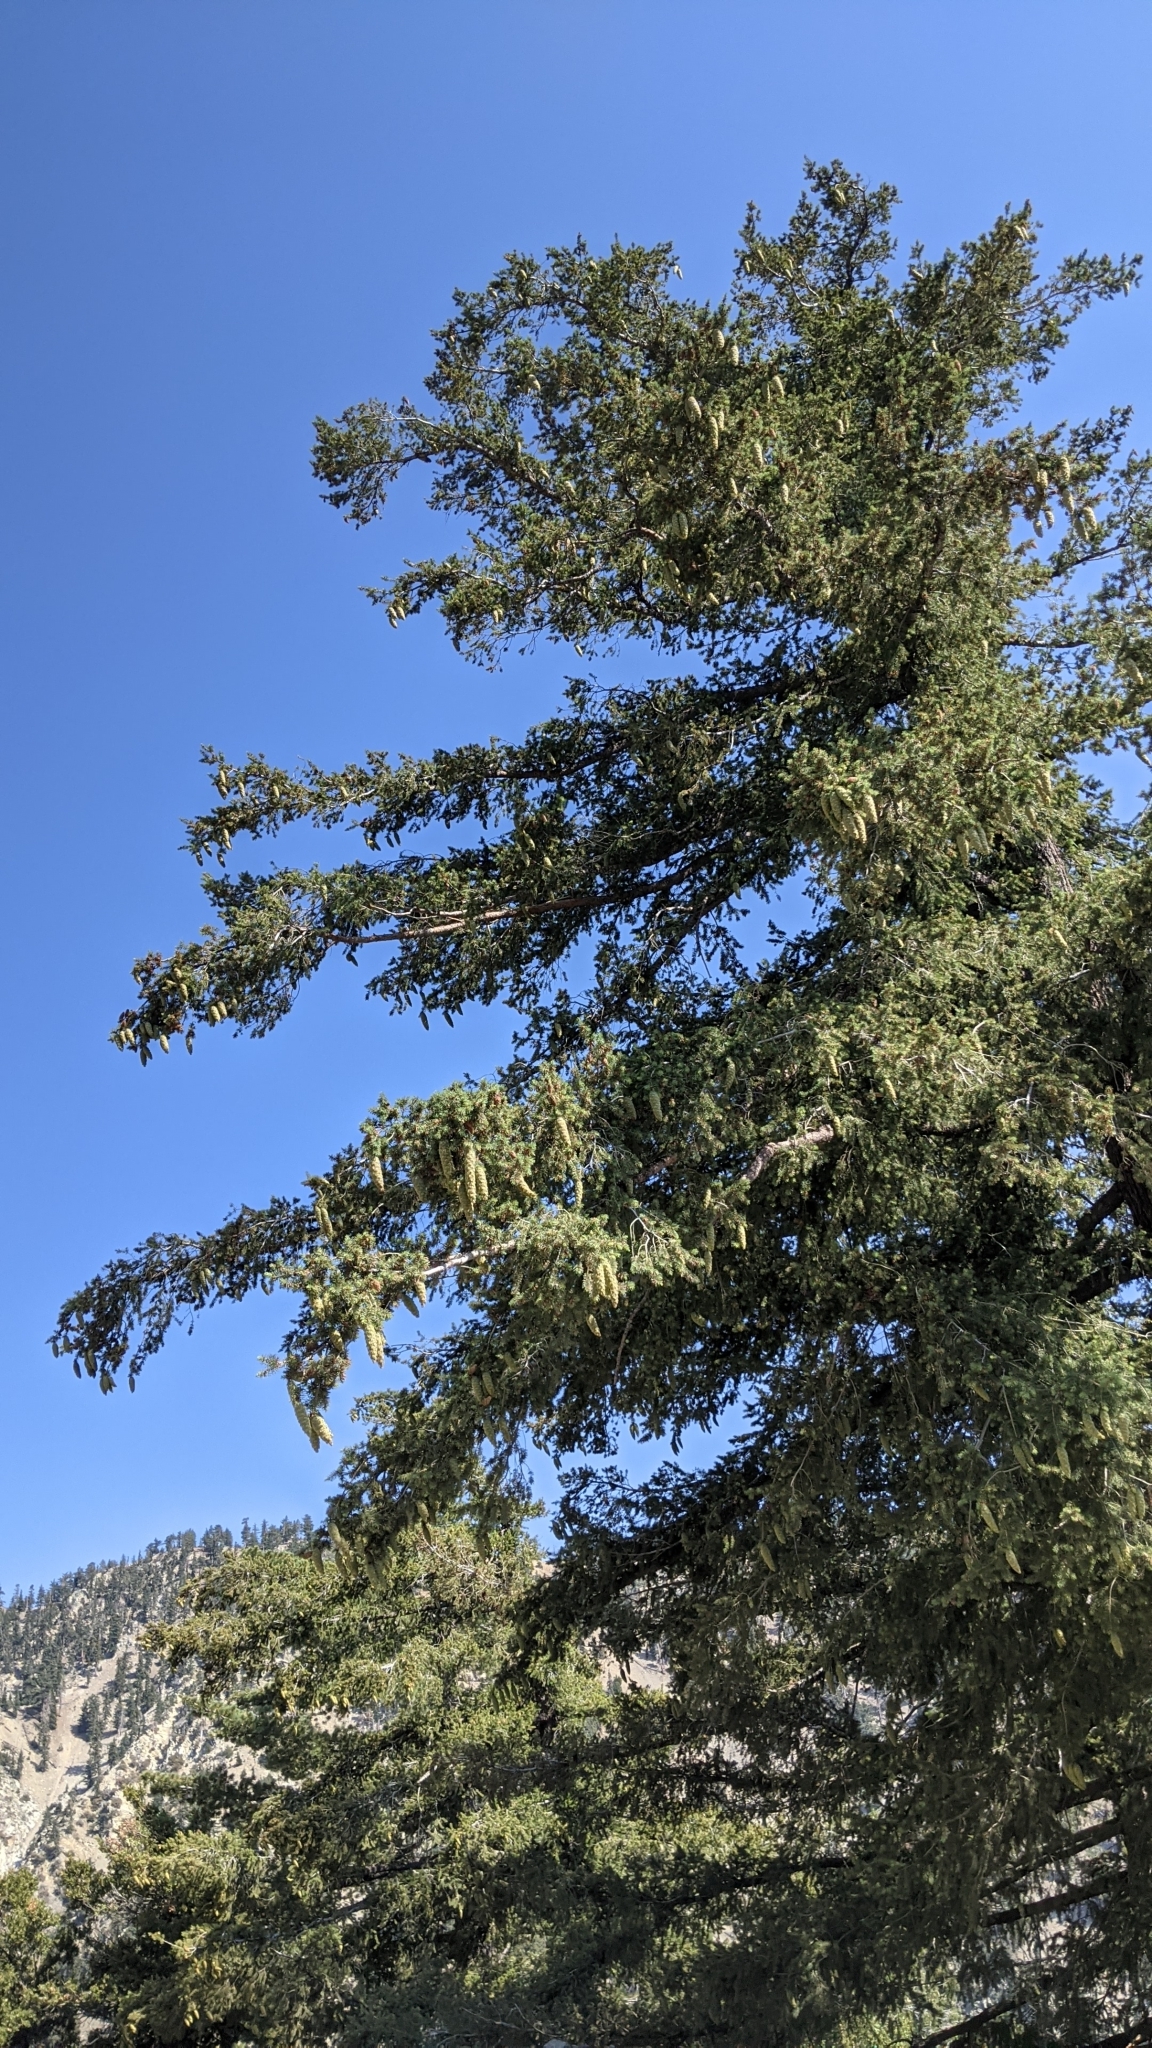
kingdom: Plantae
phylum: Tracheophyta
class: Pinopsida
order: Pinales
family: Pinaceae
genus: Pseudotsuga
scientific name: Pseudotsuga macrocarpa
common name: Big-cone douglas-fir
